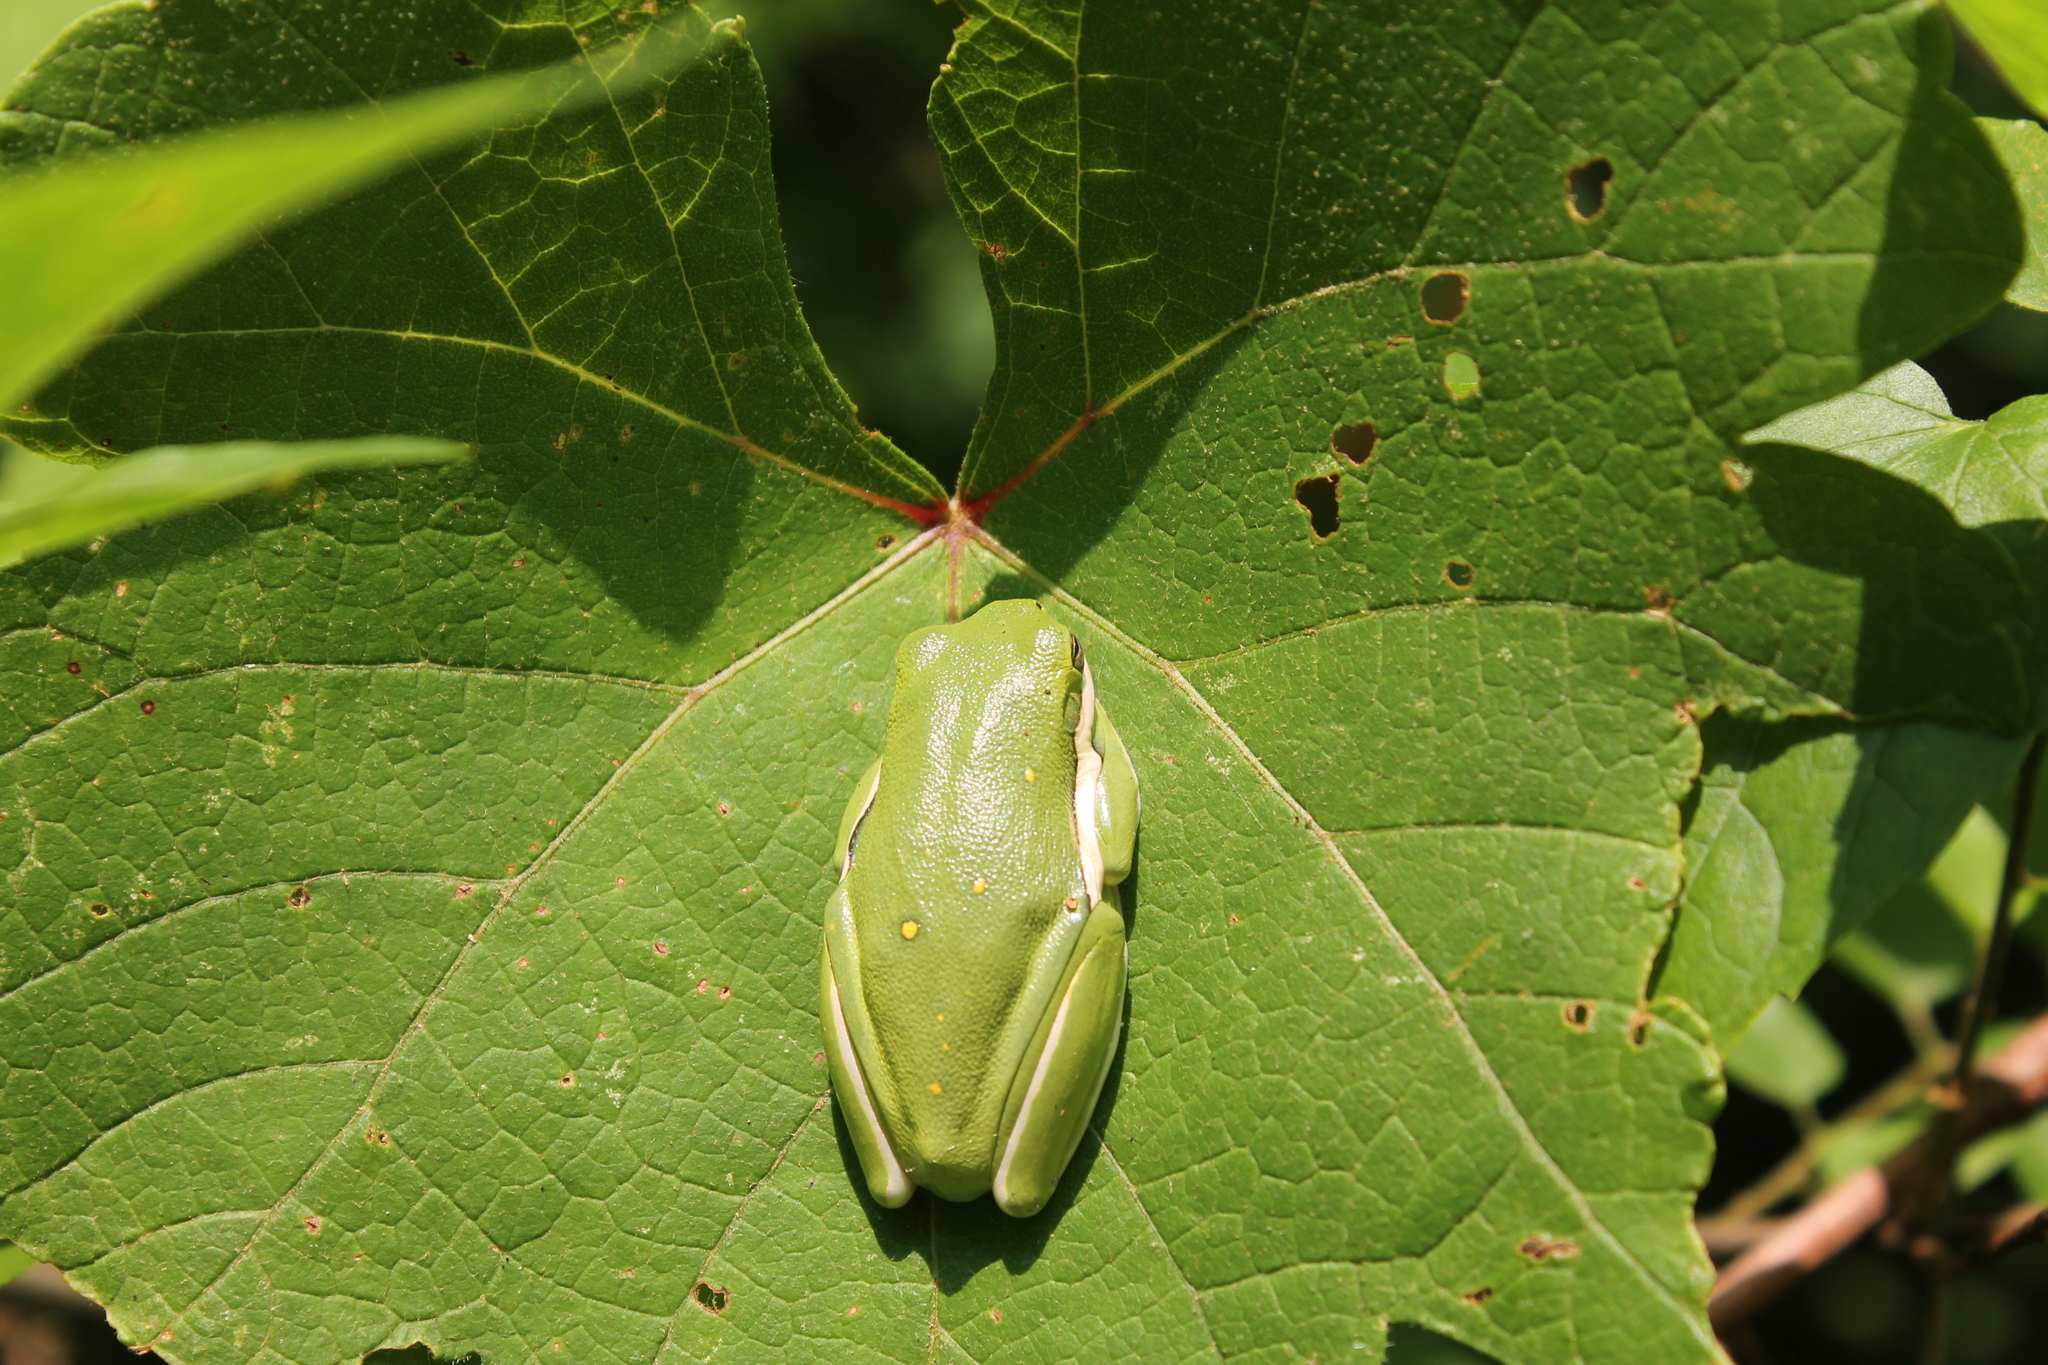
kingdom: Animalia
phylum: Chordata
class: Amphibia
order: Anura
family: Hylidae
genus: Dryophytes
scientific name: Dryophytes cinereus
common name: Green treefrog
